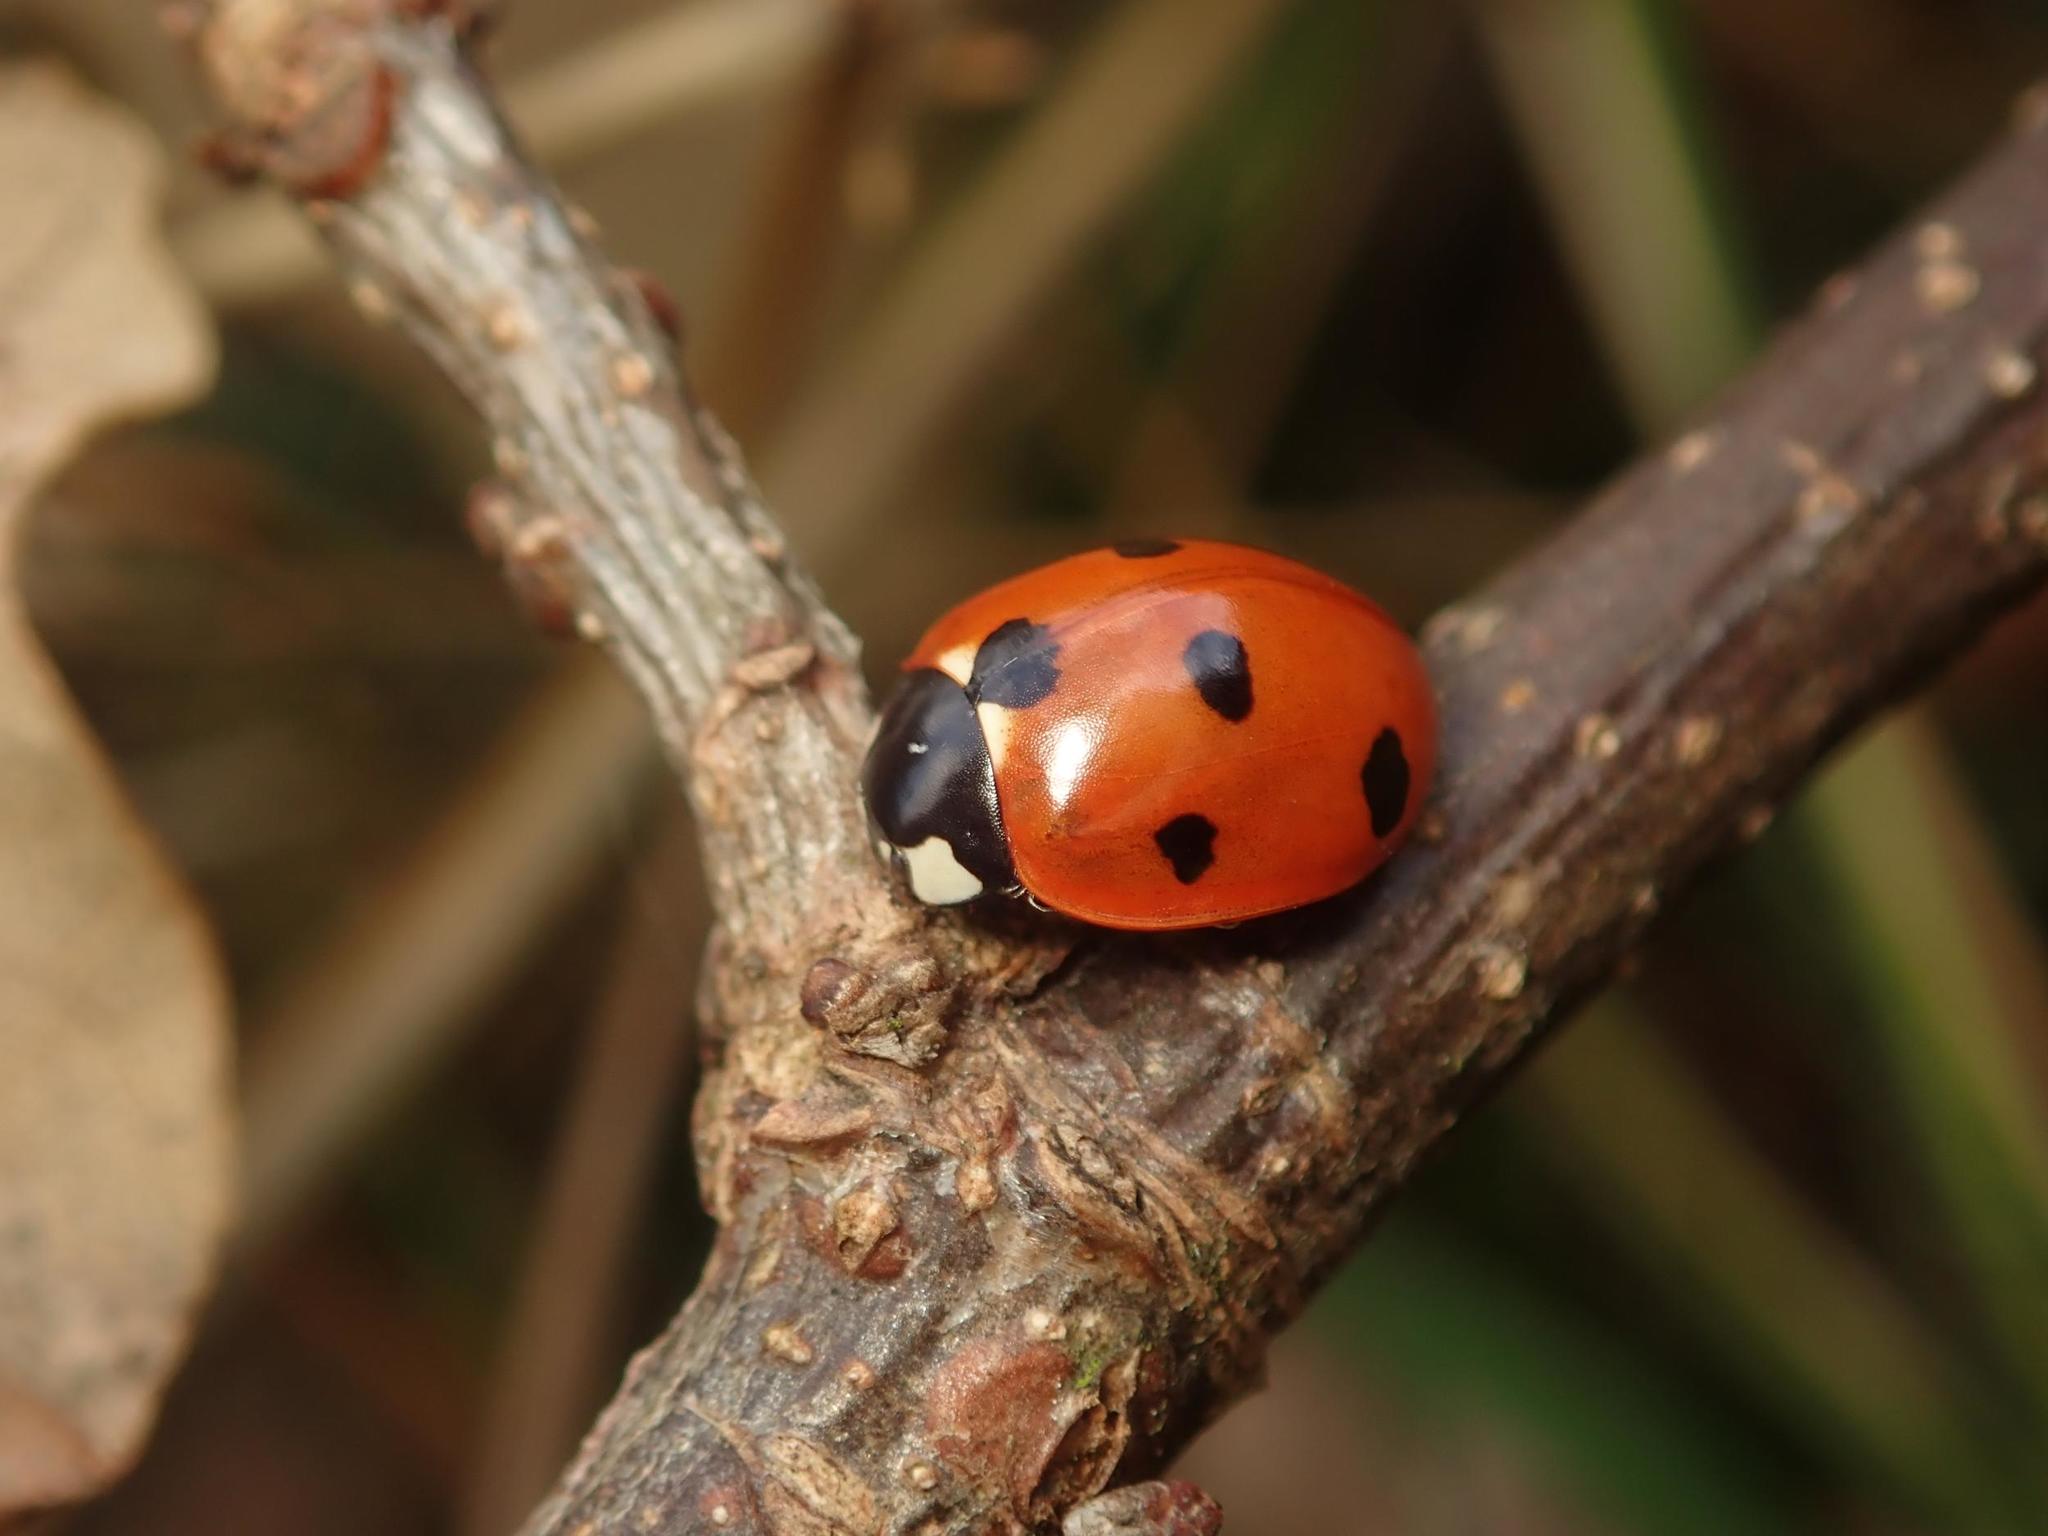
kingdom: Animalia
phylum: Arthropoda
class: Insecta
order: Coleoptera
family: Coccinellidae
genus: Coccinella
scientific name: Coccinella septempunctata
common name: Sevenspotted lady beetle
